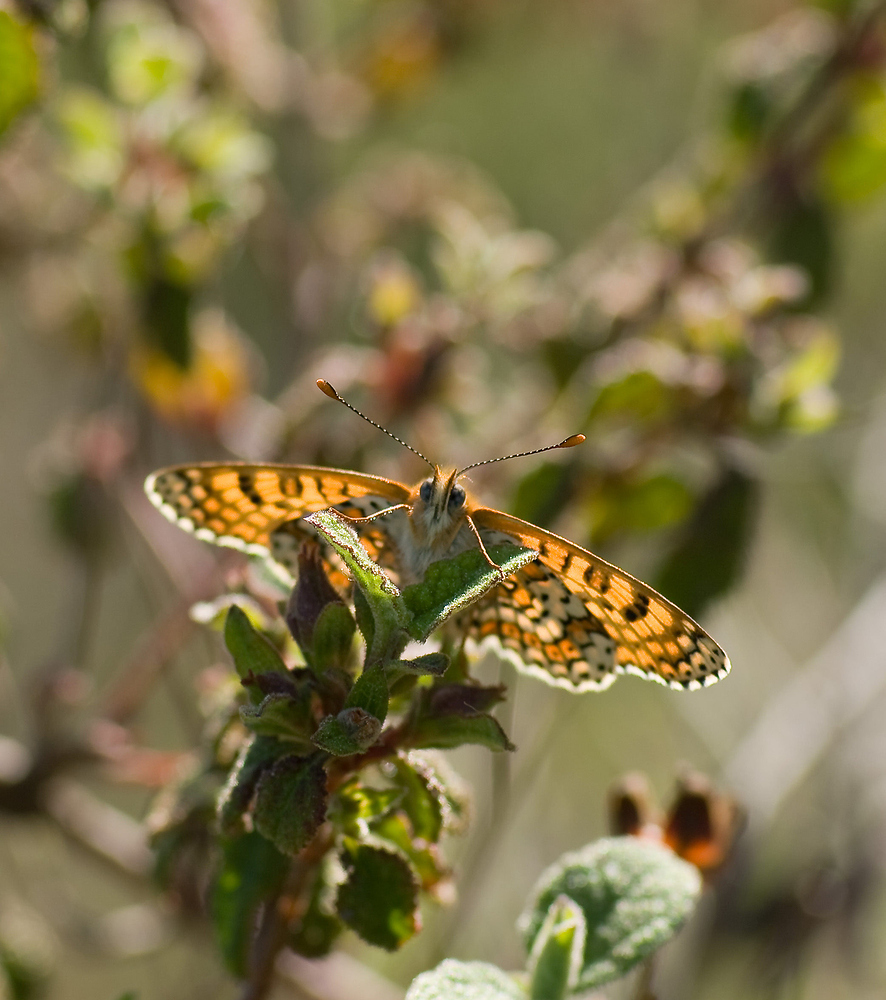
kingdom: Animalia
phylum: Arthropoda
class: Insecta
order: Lepidoptera
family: Nymphalidae
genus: Melitaea
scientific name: Melitaea cinxia
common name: Glanville fritillary
